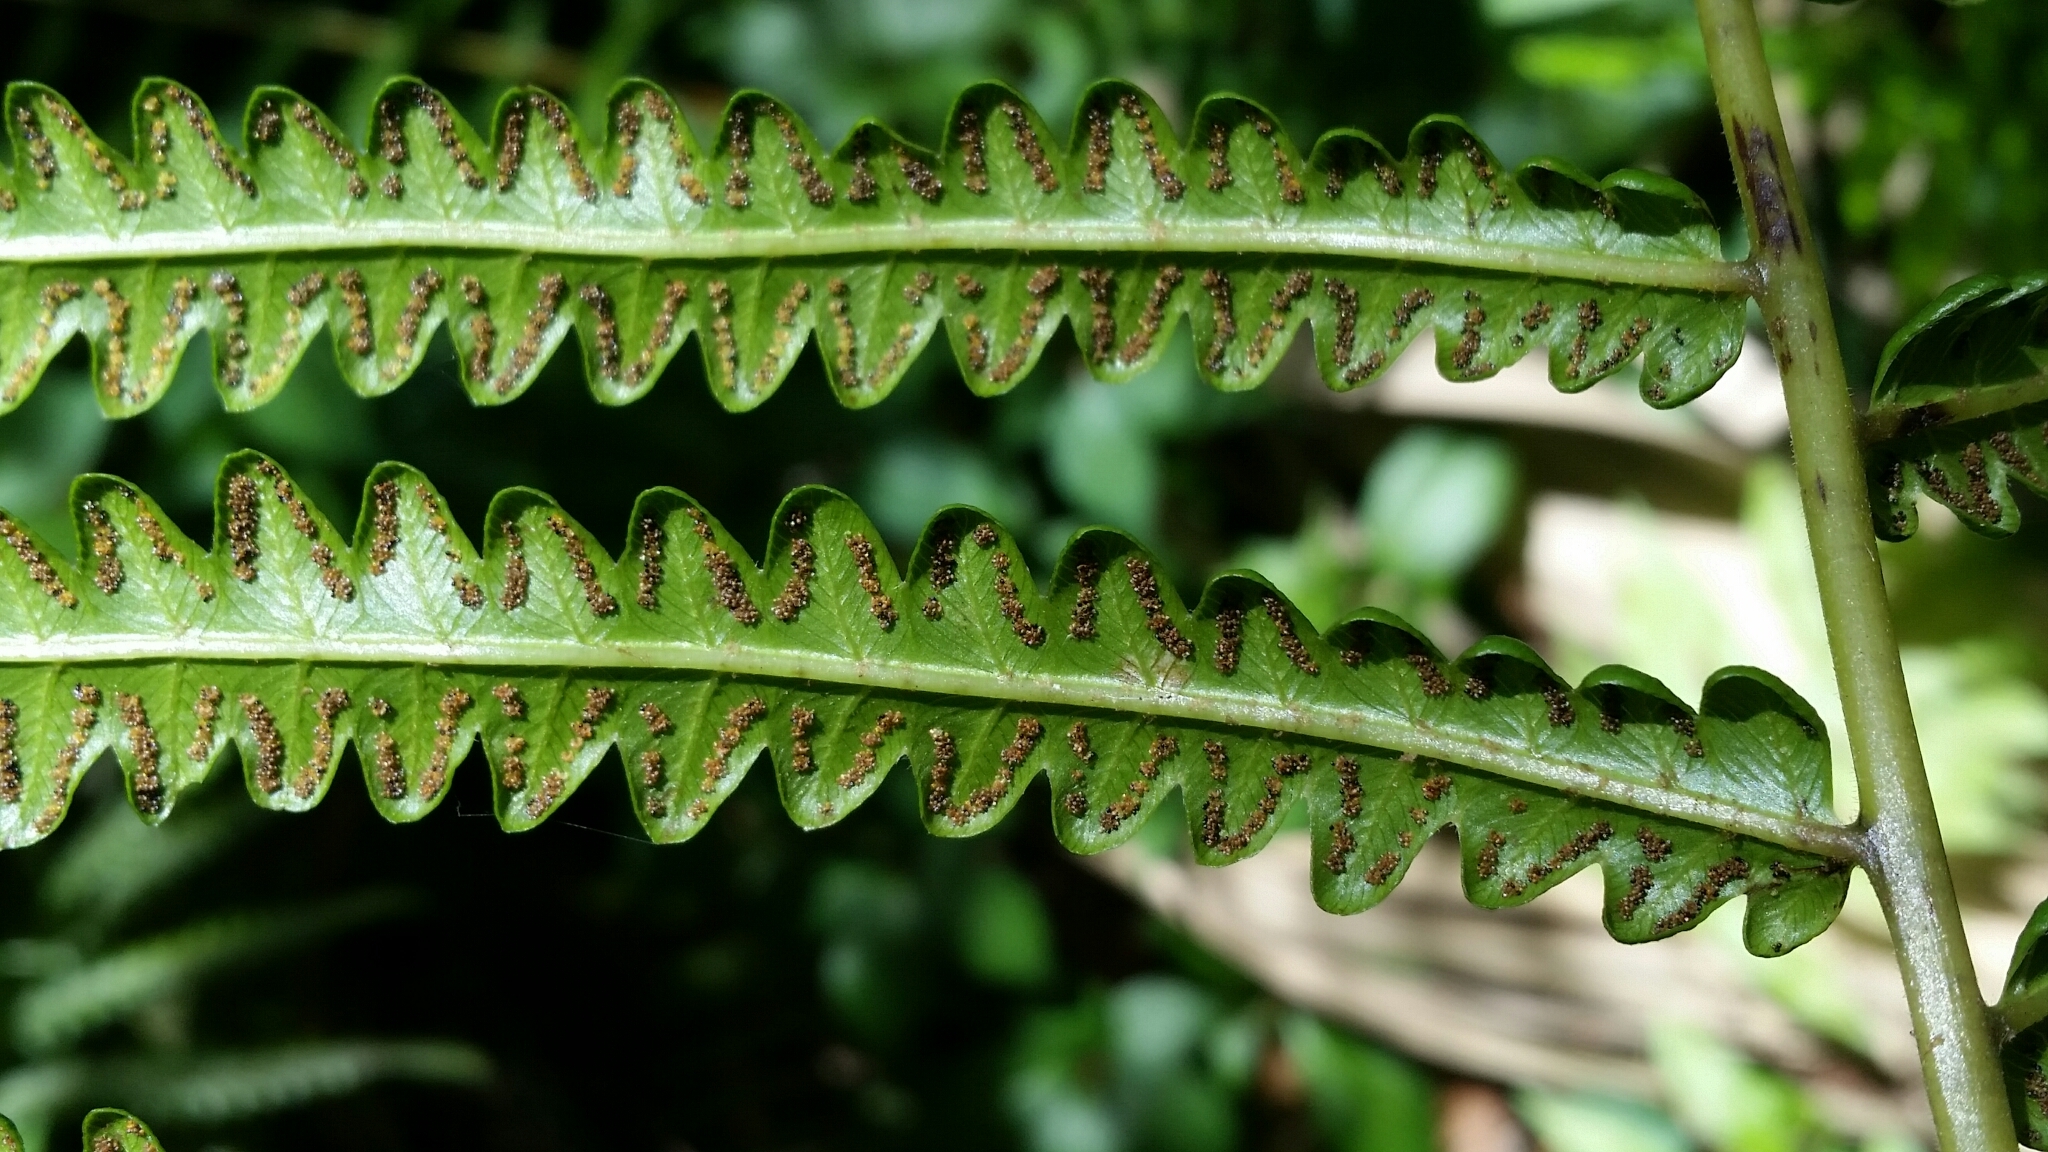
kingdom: Plantae
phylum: Tracheophyta
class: Polypodiopsida
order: Polypodiales
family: Thelypteridaceae
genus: Cyclosorus
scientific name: Cyclosorus interruptus
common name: Neke fern
